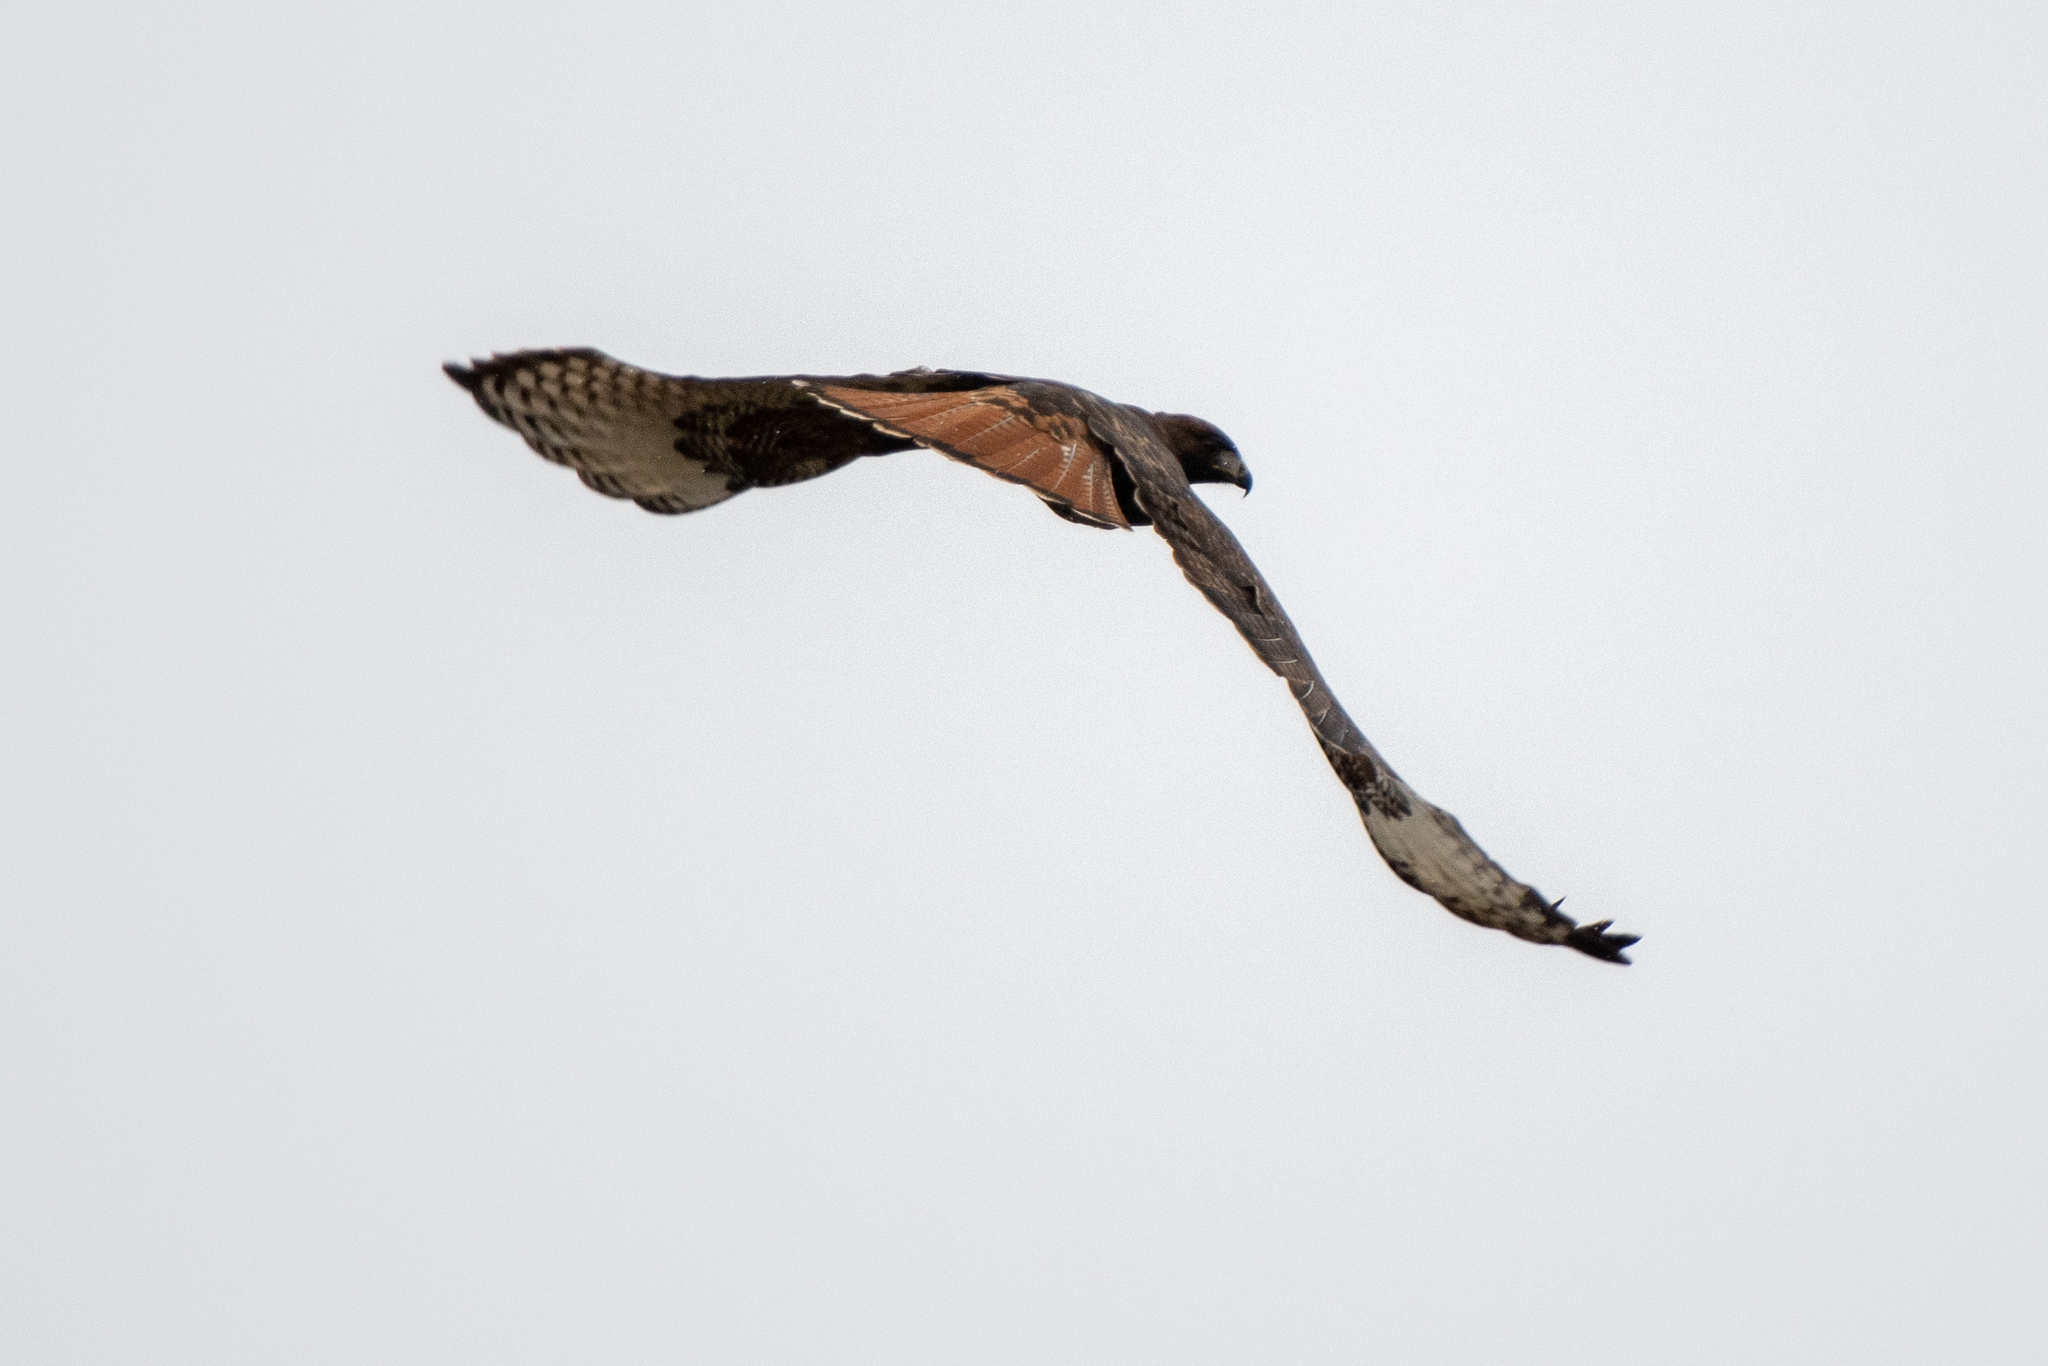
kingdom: Animalia
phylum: Chordata
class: Aves
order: Accipitriformes
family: Accipitridae
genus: Buteo
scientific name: Buteo jamaicensis
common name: Red-tailed hawk
